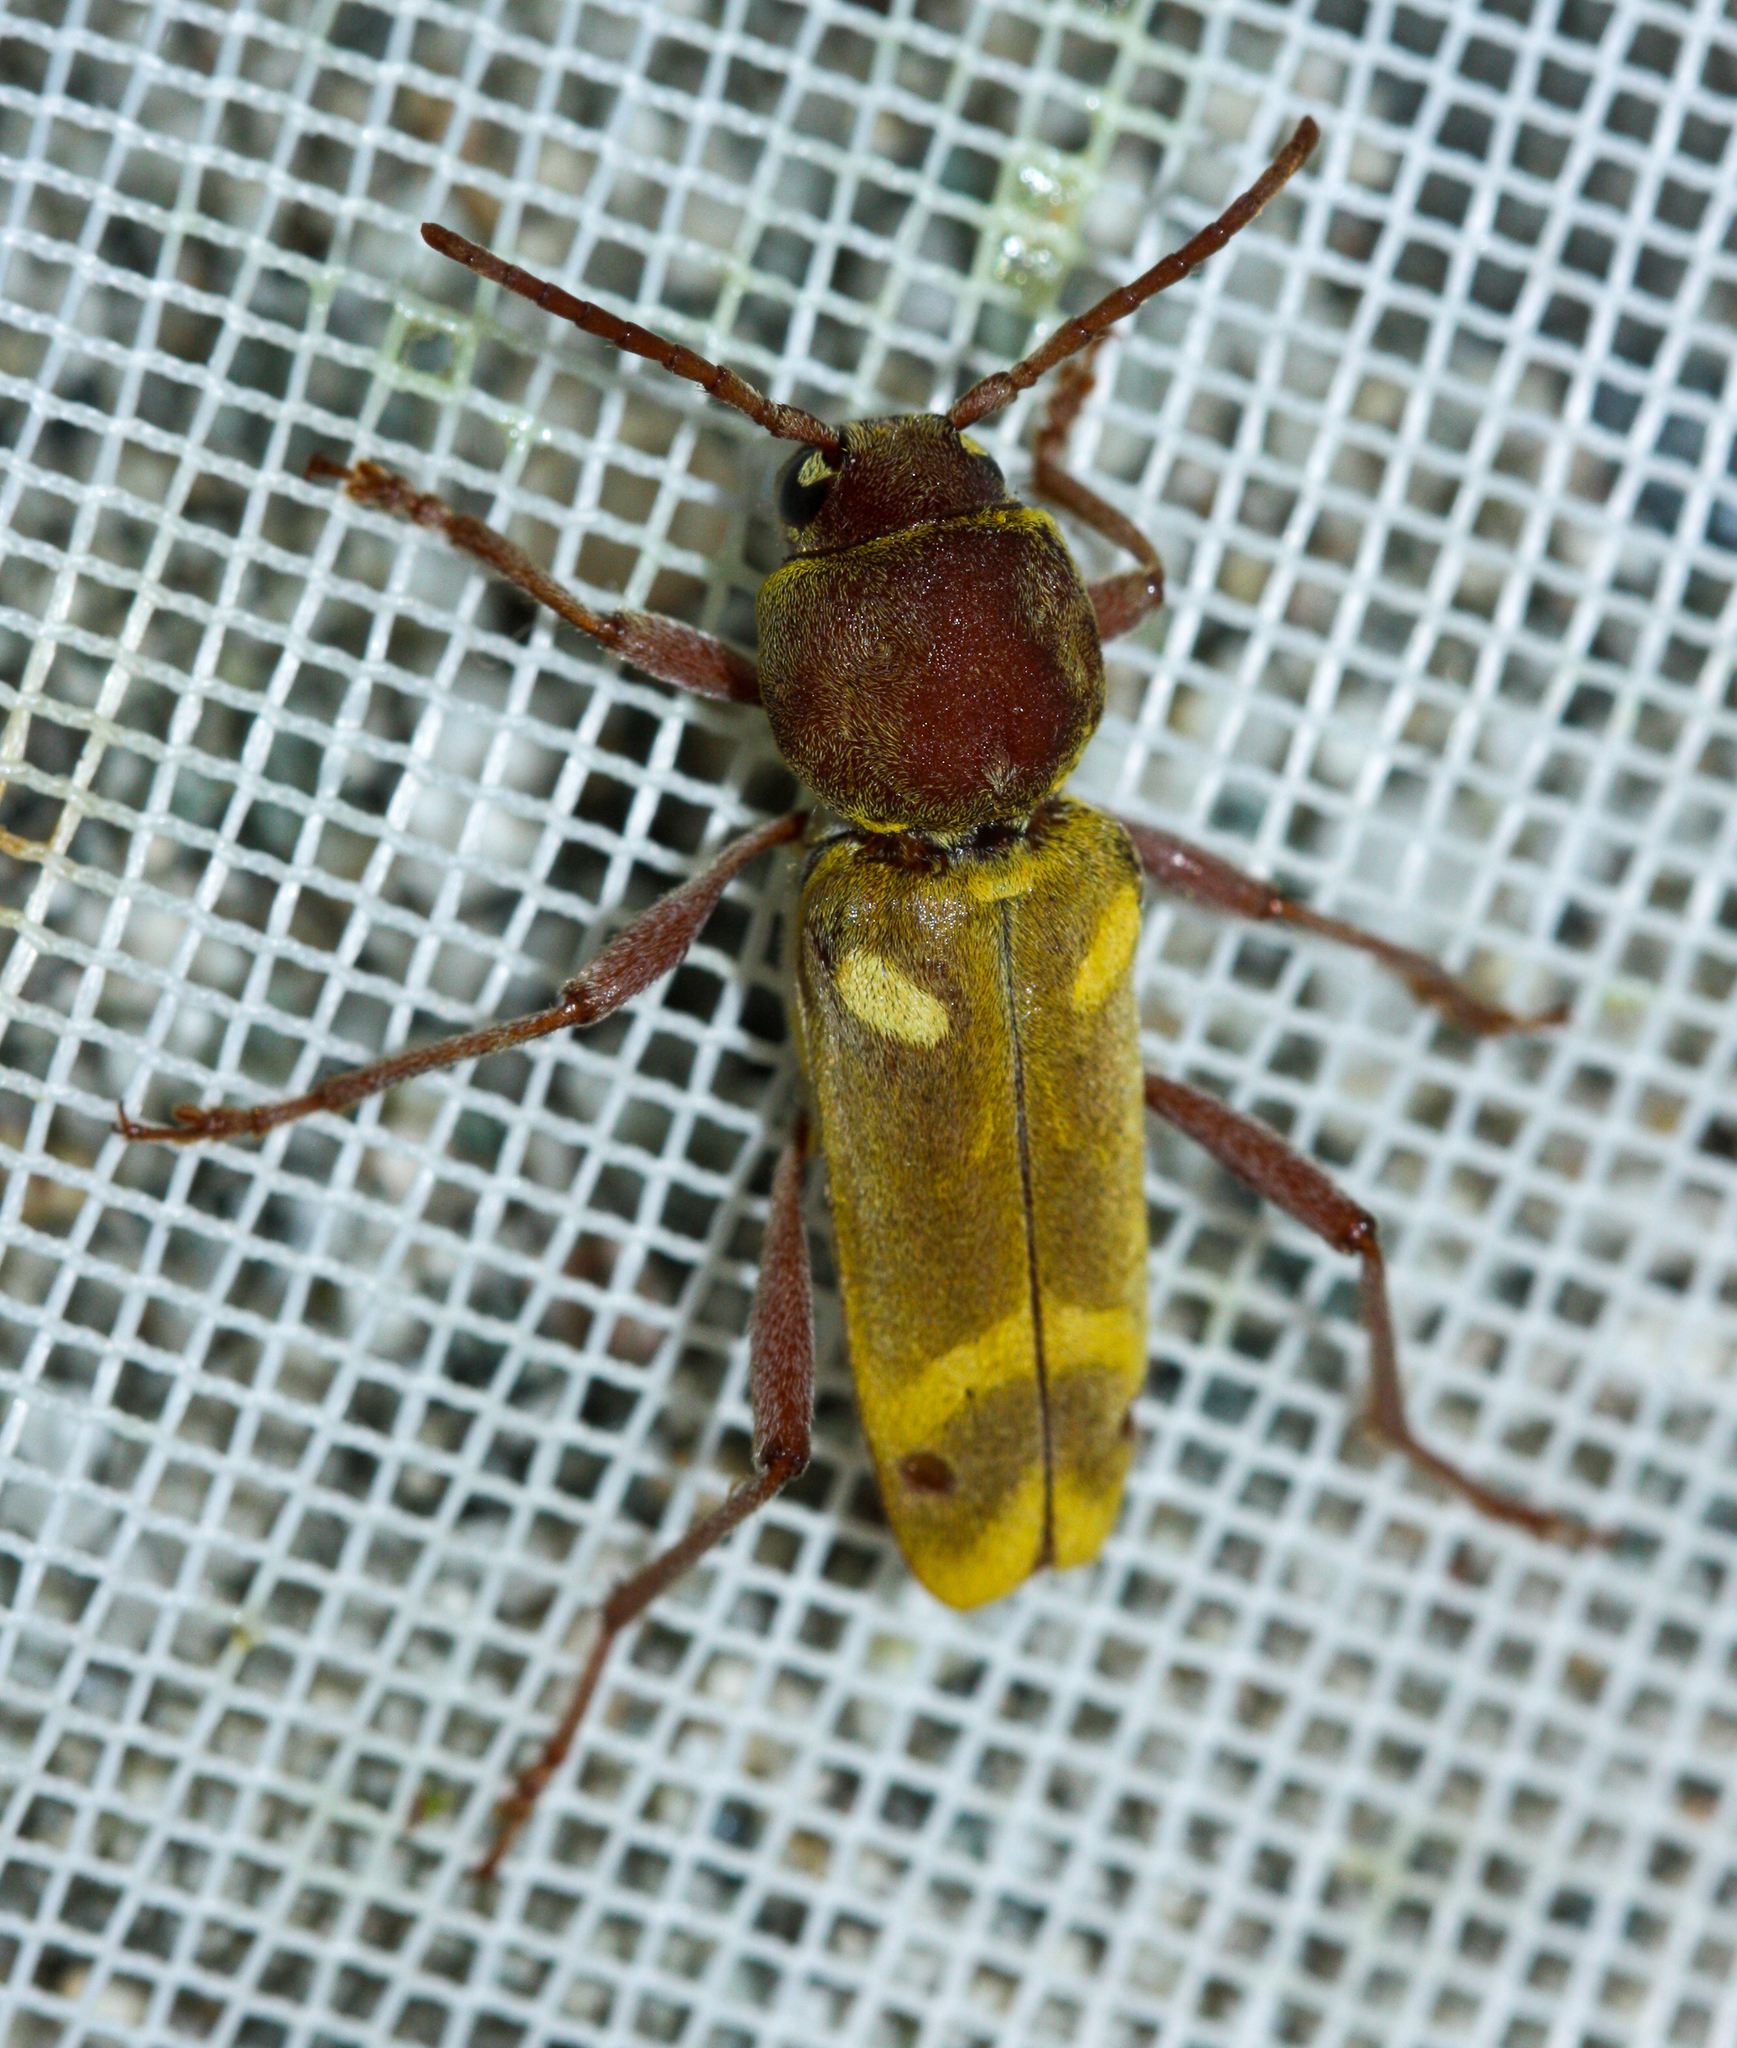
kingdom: Animalia
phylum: Arthropoda
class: Insecta
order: Coleoptera
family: Cerambycidae
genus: Xylotrechus
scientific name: Xylotrechus insignis
